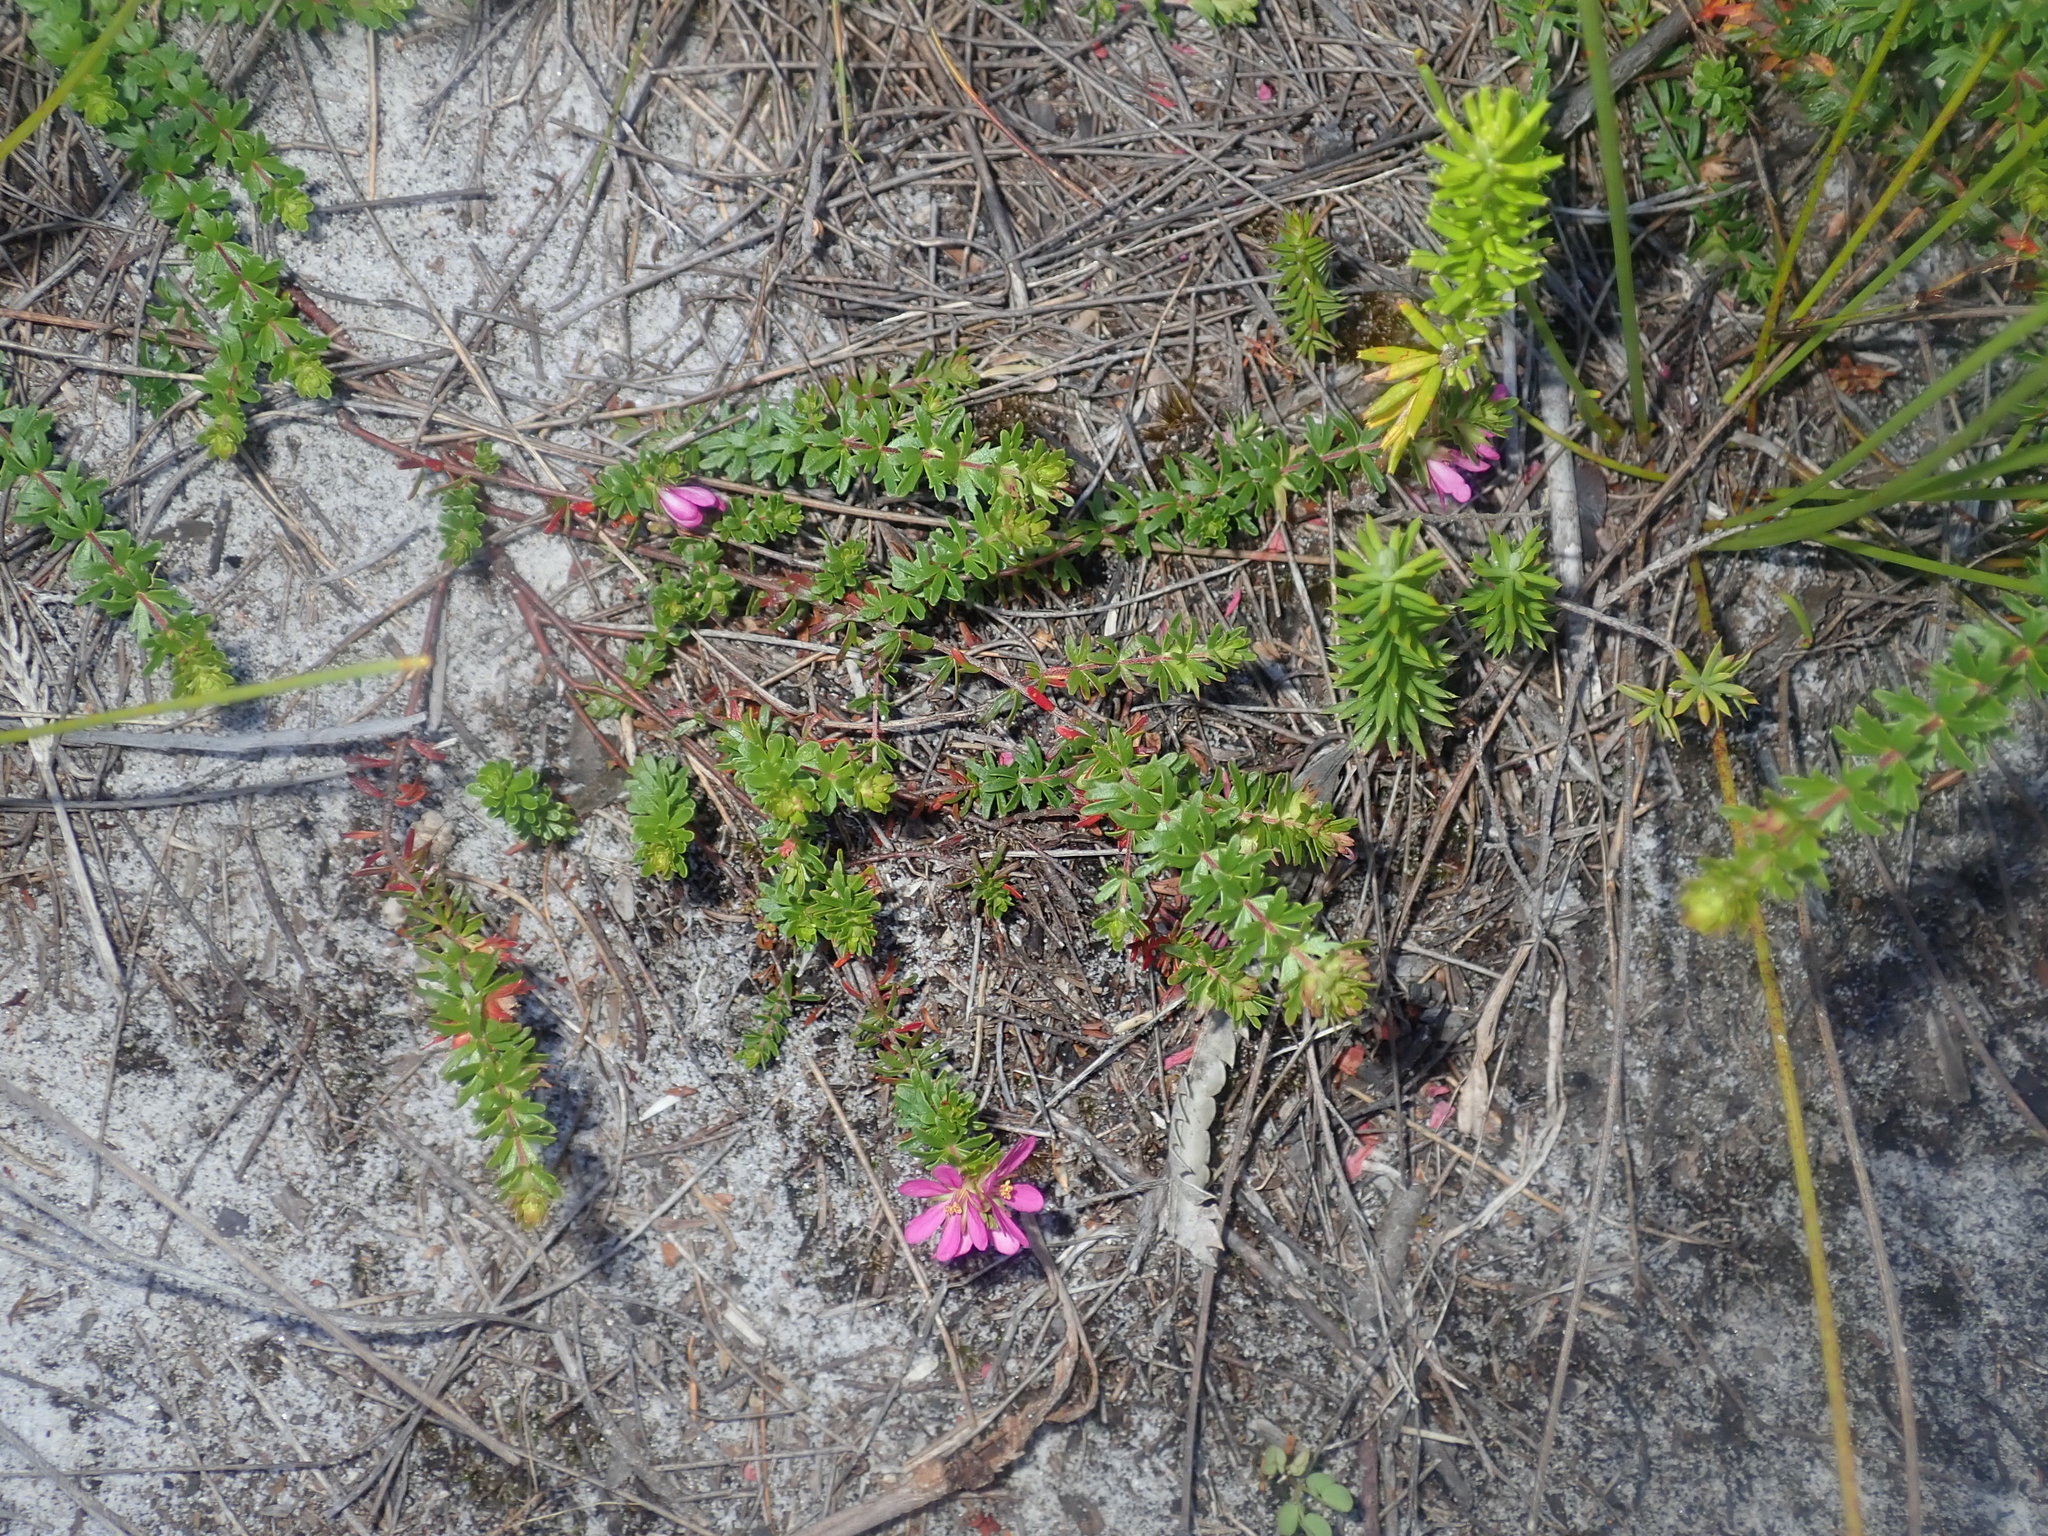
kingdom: Plantae
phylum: Tracheophyta
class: Magnoliopsida
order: Oxalidales
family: Cunoniaceae
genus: Bauera
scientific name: Bauera capitata
